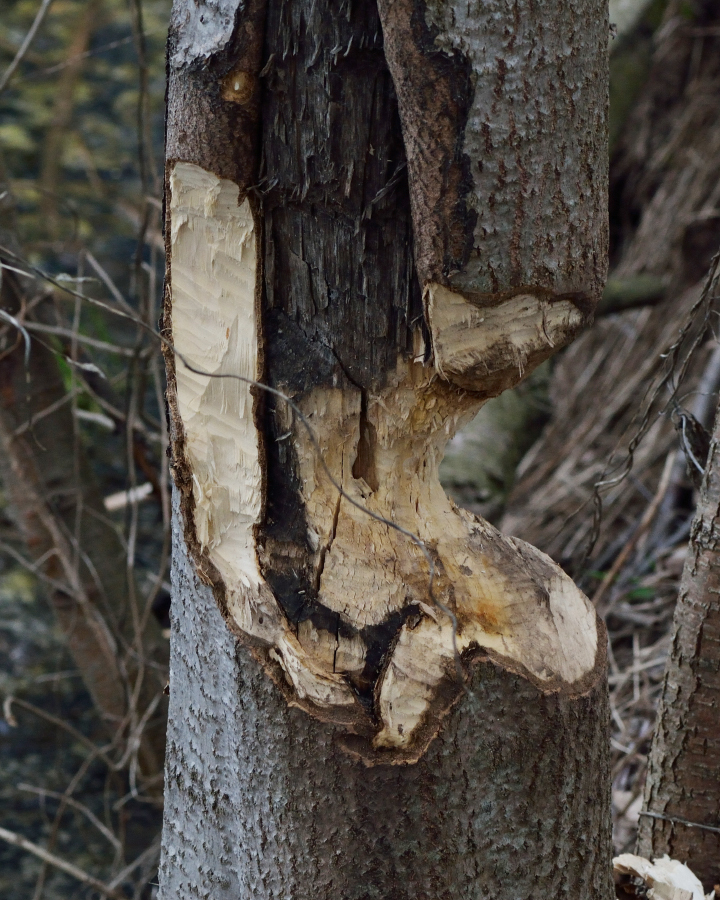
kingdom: Animalia
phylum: Chordata
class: Mammalia
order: Rodentia
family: Castoridae
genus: Castor
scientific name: Castor fiber
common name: Eurasian beaver
